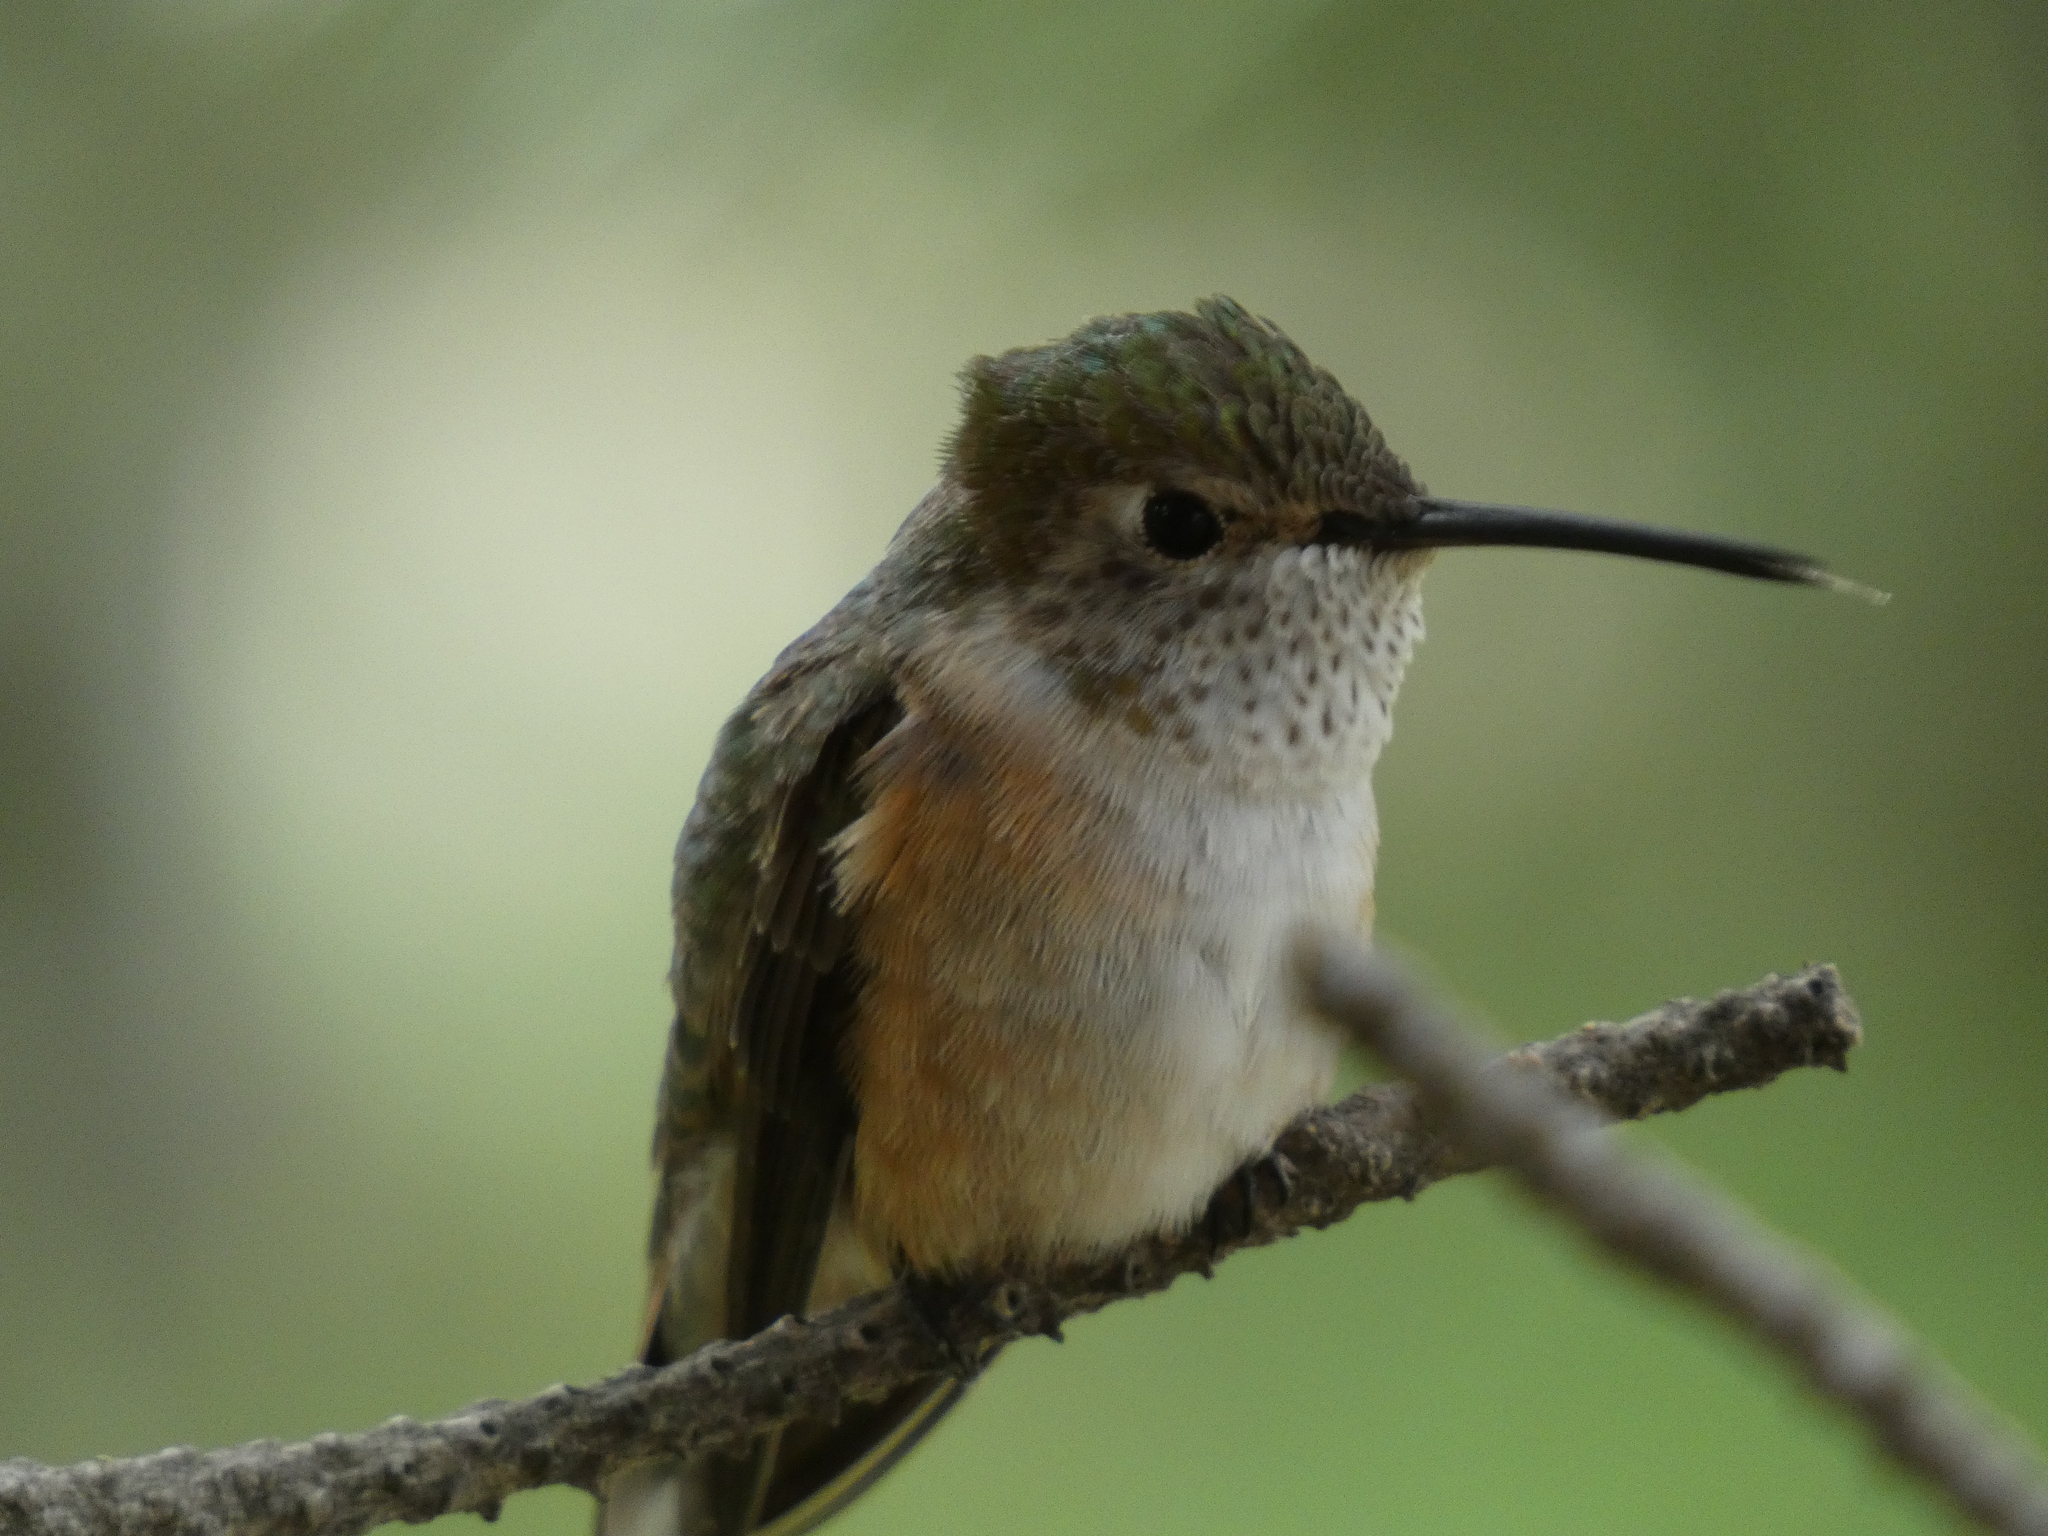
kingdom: Animalia
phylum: Chordata
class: Aves
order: Apodiformes
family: Trochilidae
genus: Selasphorus
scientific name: Selasphorus platycercus
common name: Broad-tailed hummingbird
